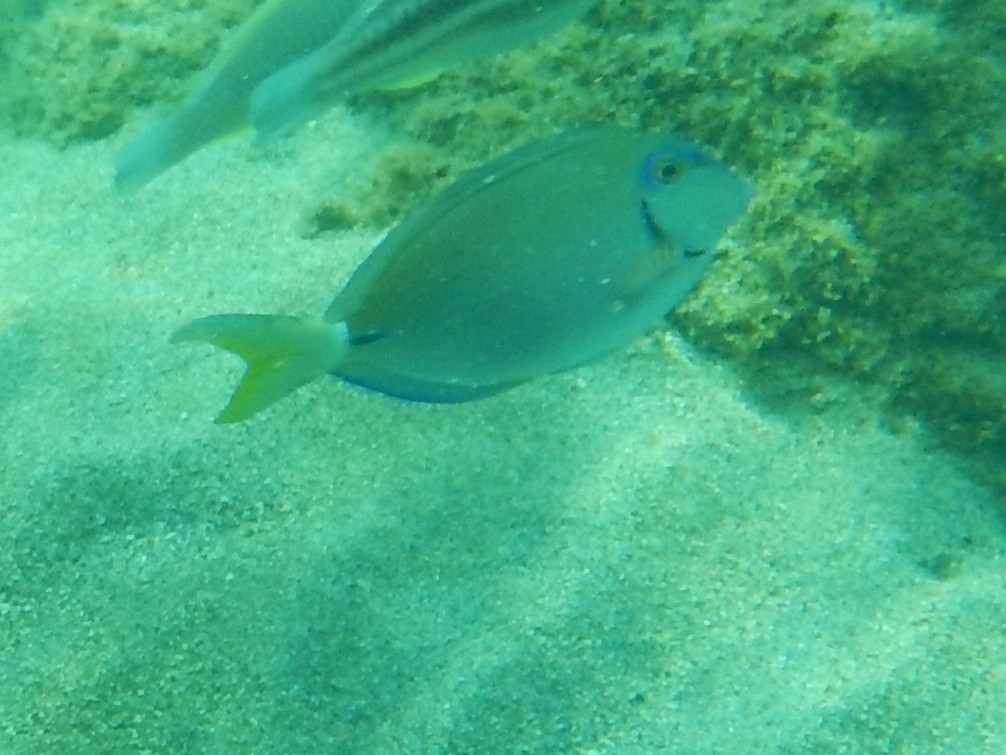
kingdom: Animalia
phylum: Chordata
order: Perciformes
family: Acanthuridae
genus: Acanthurus
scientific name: Acanthurus bahianus
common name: Ocean surgeon
